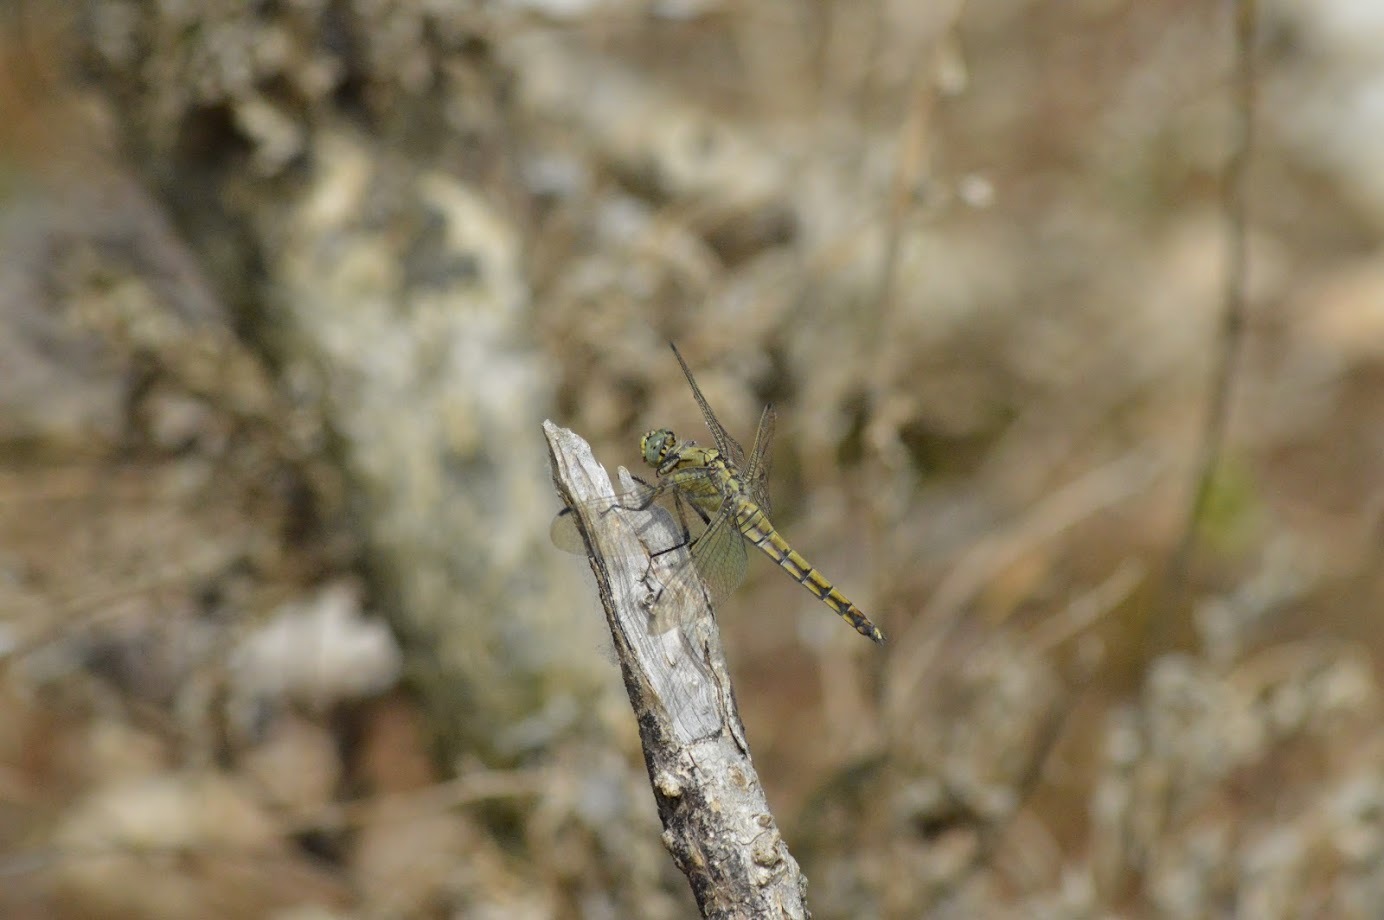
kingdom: Animalia
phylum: Arthropoda
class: Insecta
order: Odonata
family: Libellulidae
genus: Orthetrum
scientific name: Orthetrum cancellatum
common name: Black-tailed skimmer
